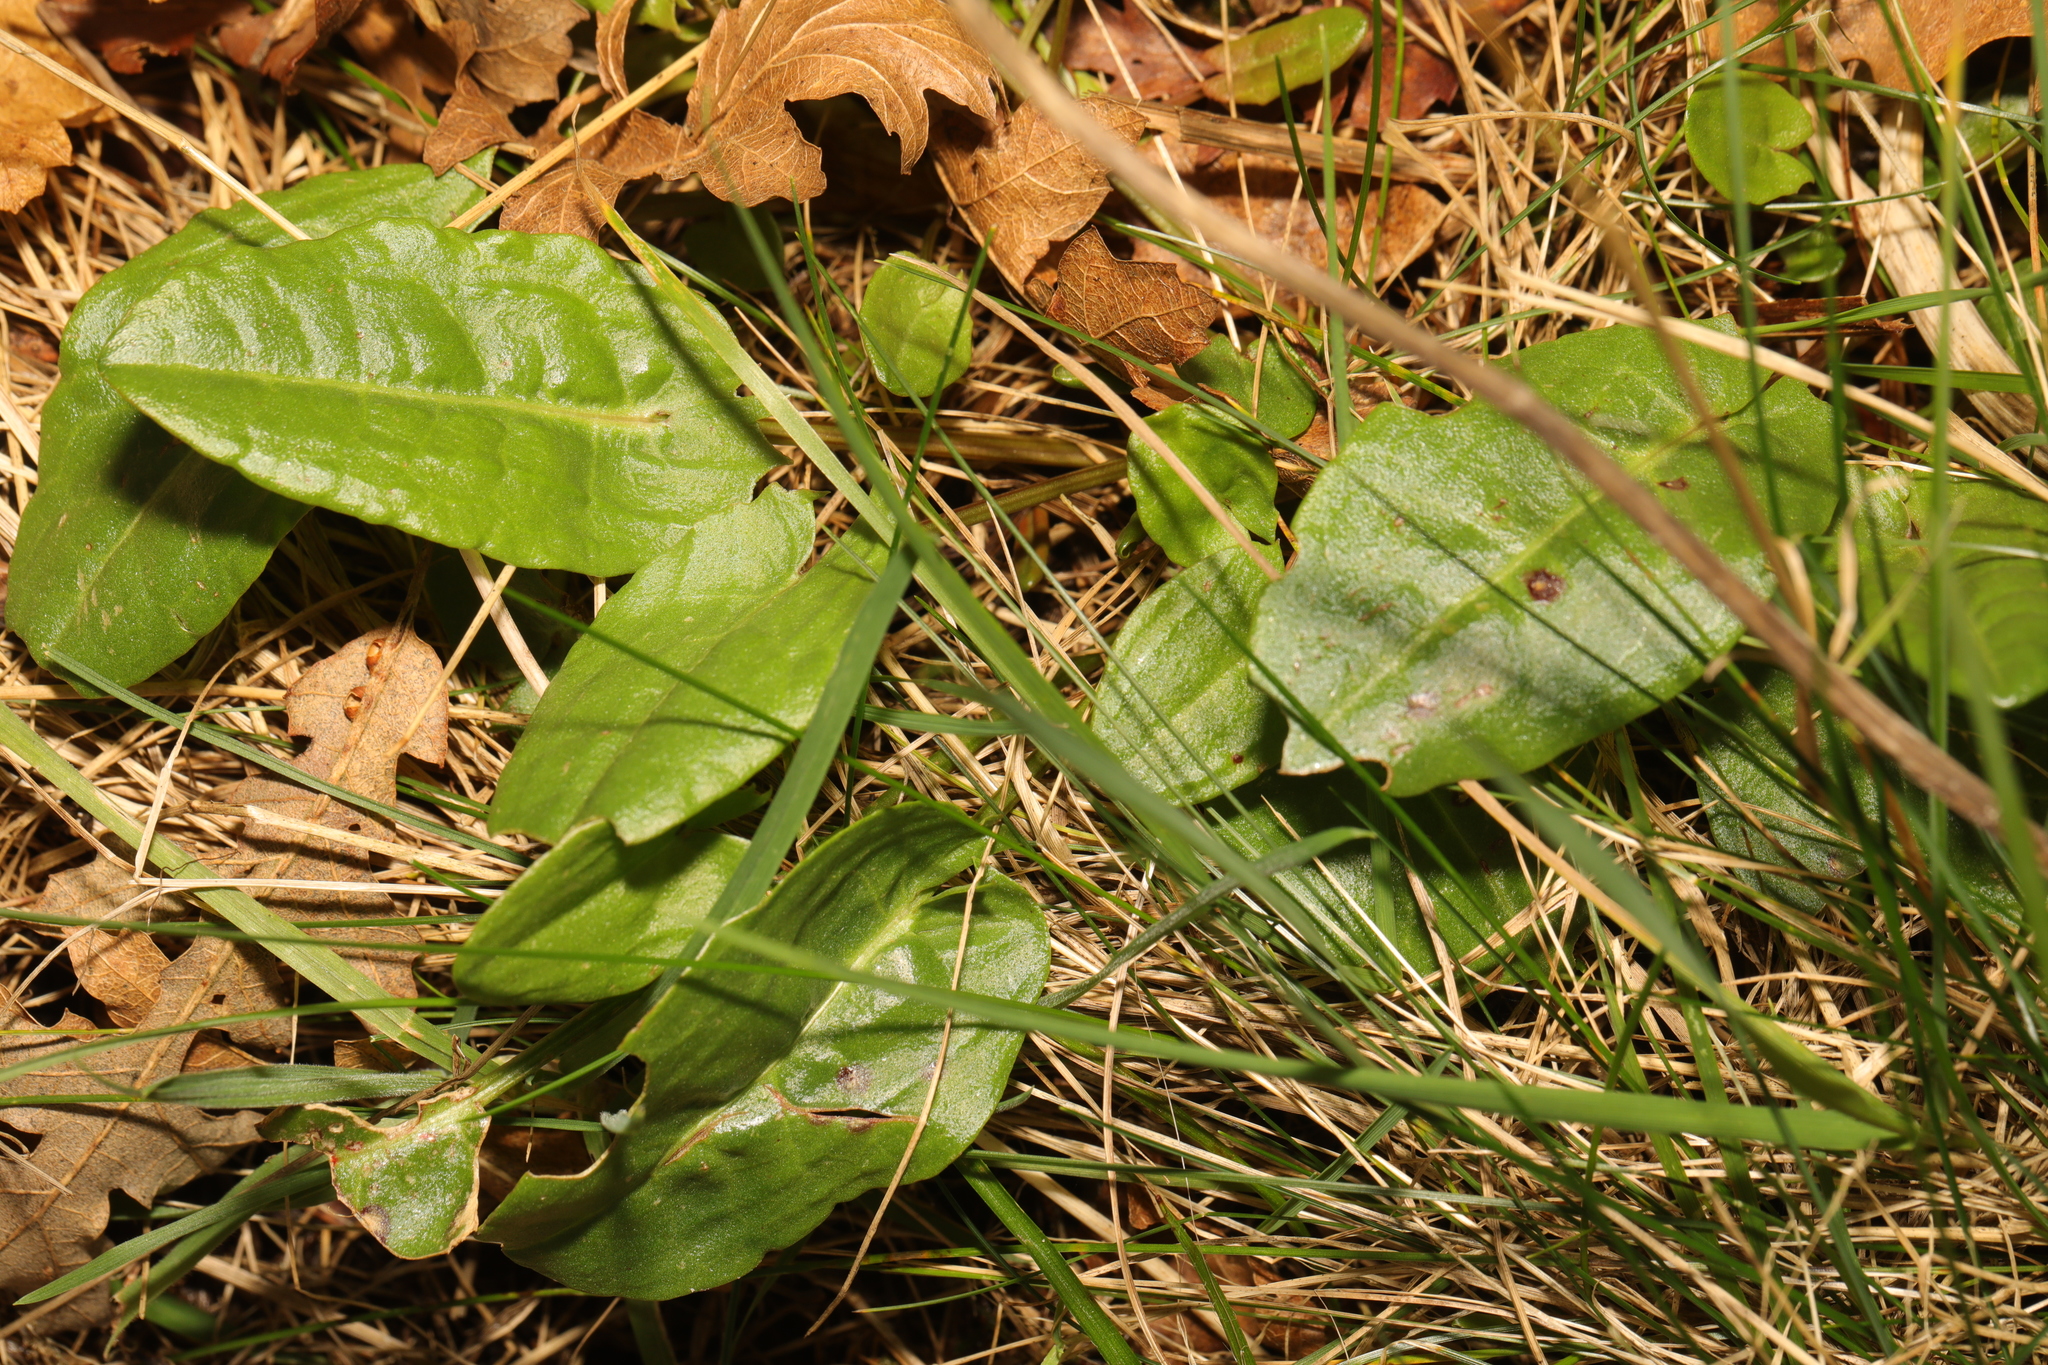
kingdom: Plantae
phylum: Tracheophyta
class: Magnoliopsida
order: Caryophyllales
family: Polygonaceae
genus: Rumex
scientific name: Rumex acetosa
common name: Garden sorrel
